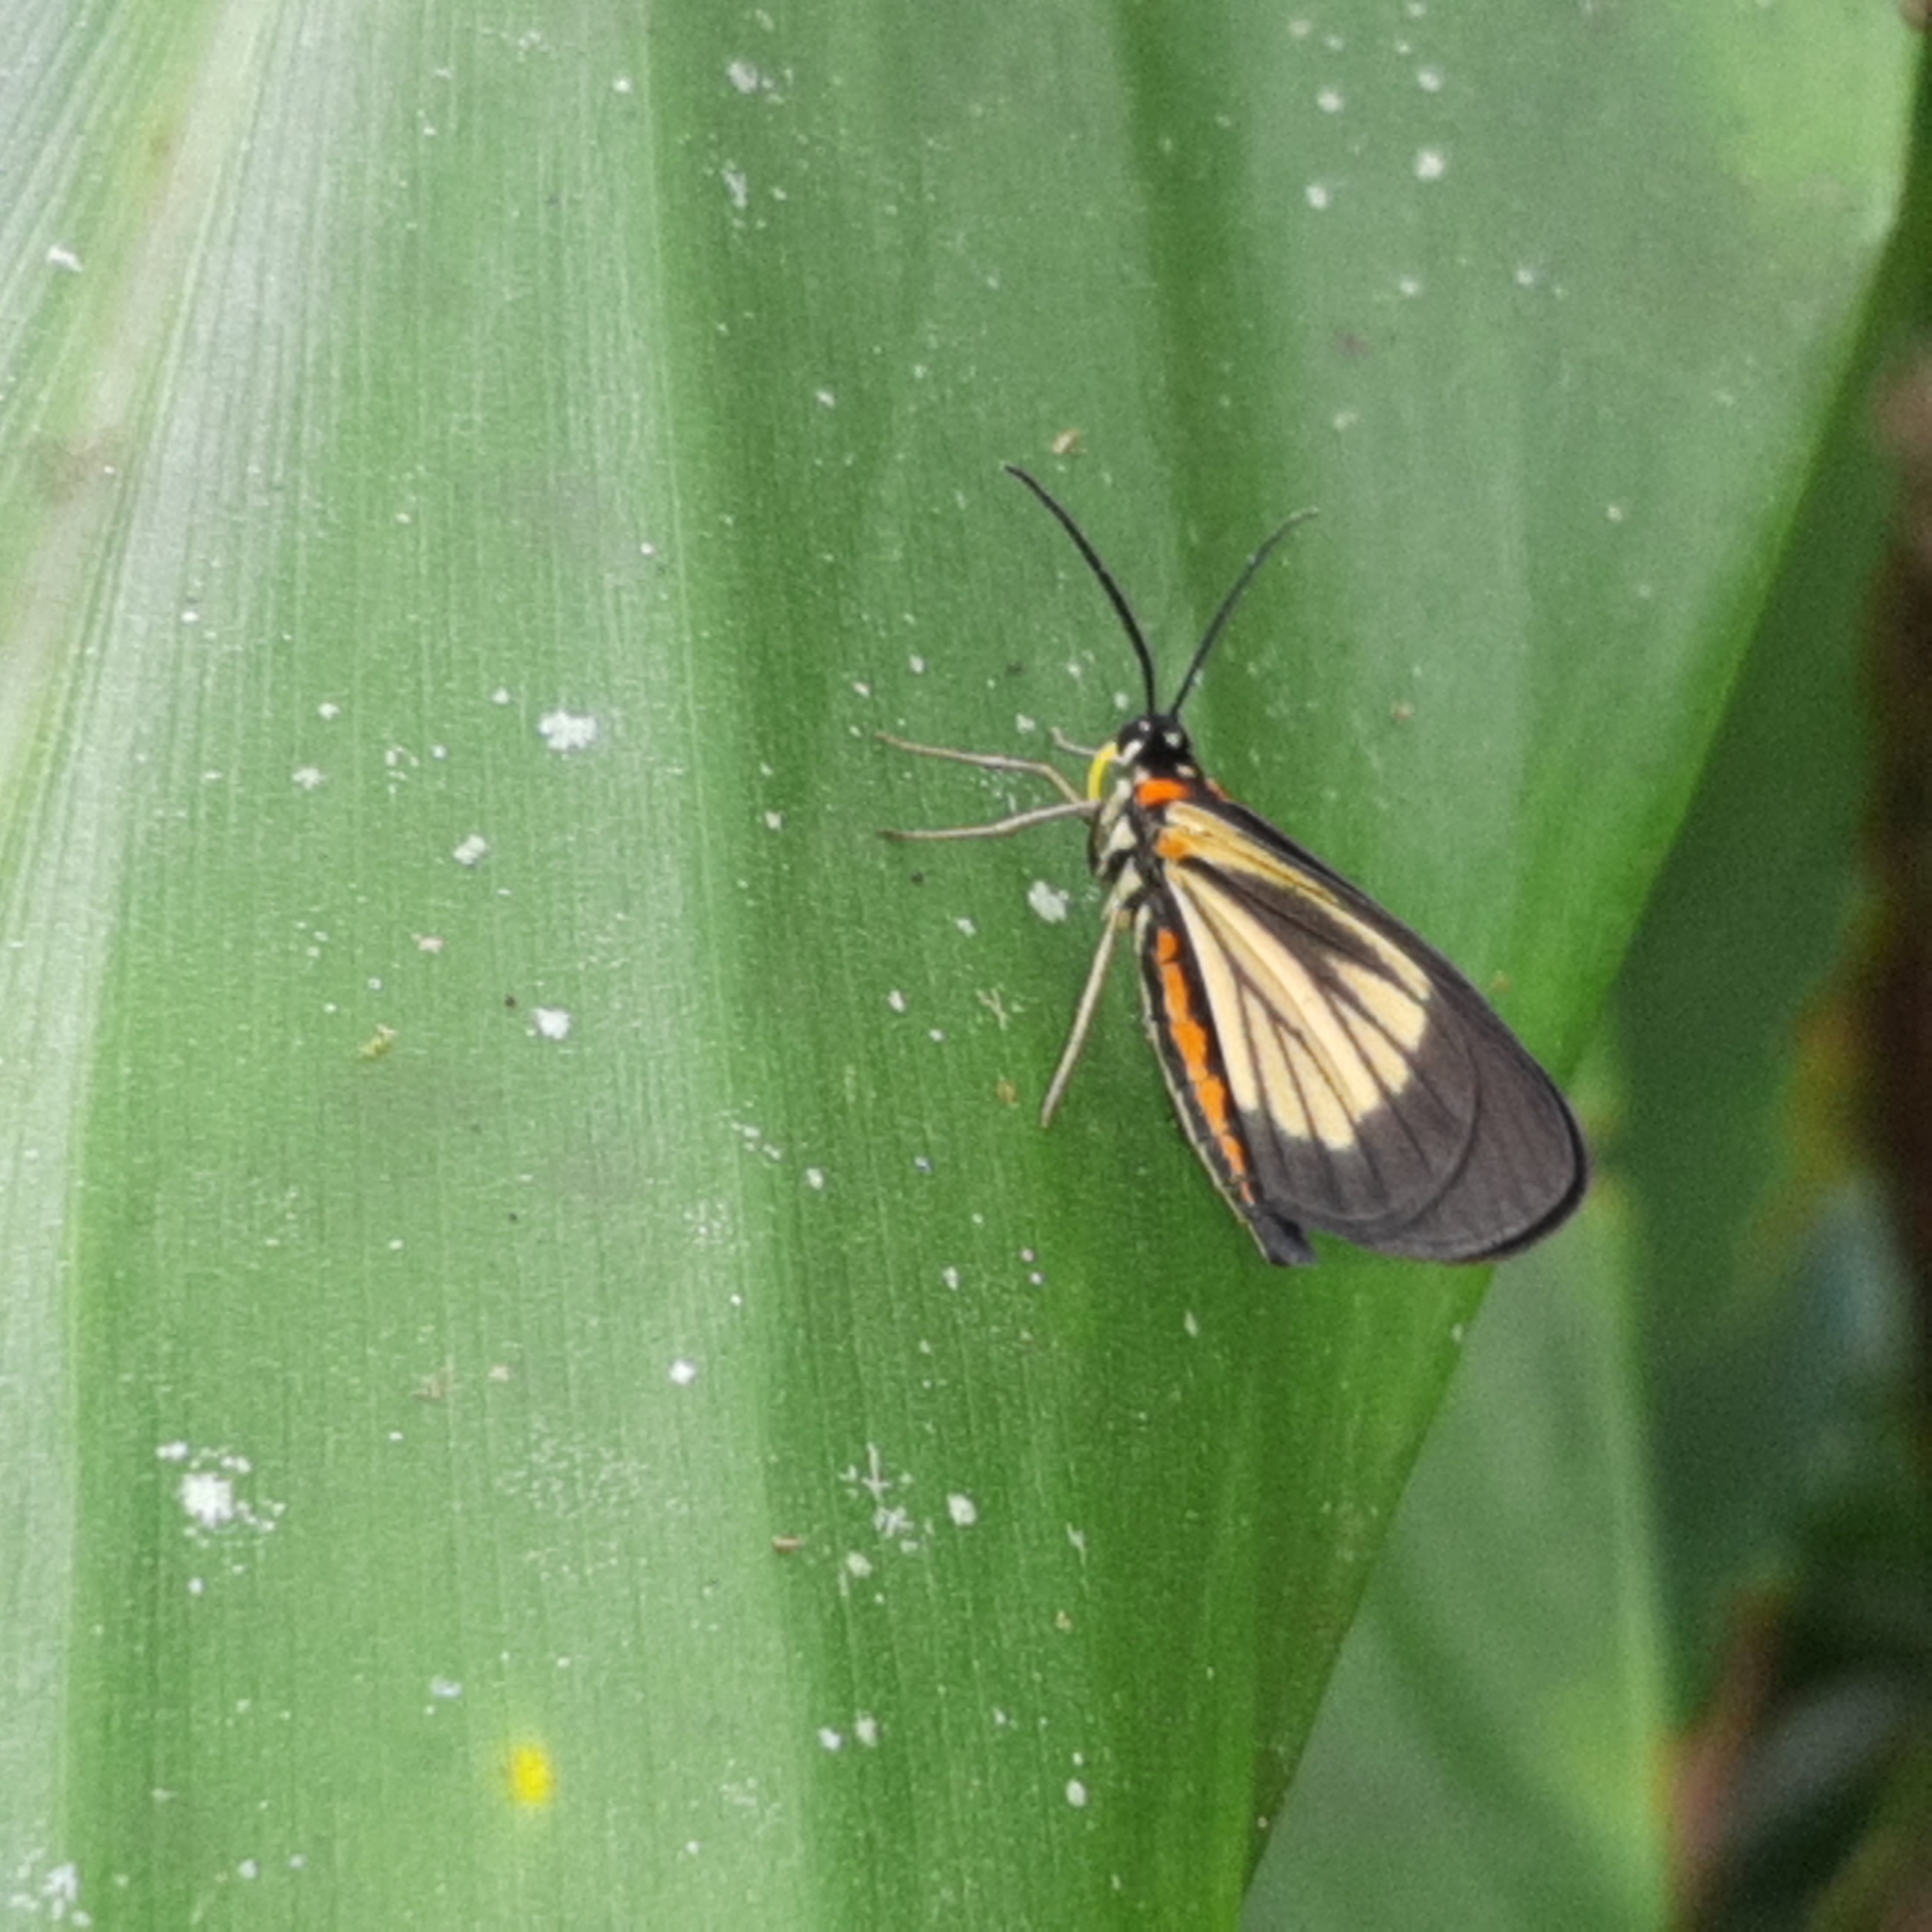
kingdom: Animalia
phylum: Arthropoda
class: Insecta
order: Lepidoptera
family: Geometridae
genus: Drymoea
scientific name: Drymoea
